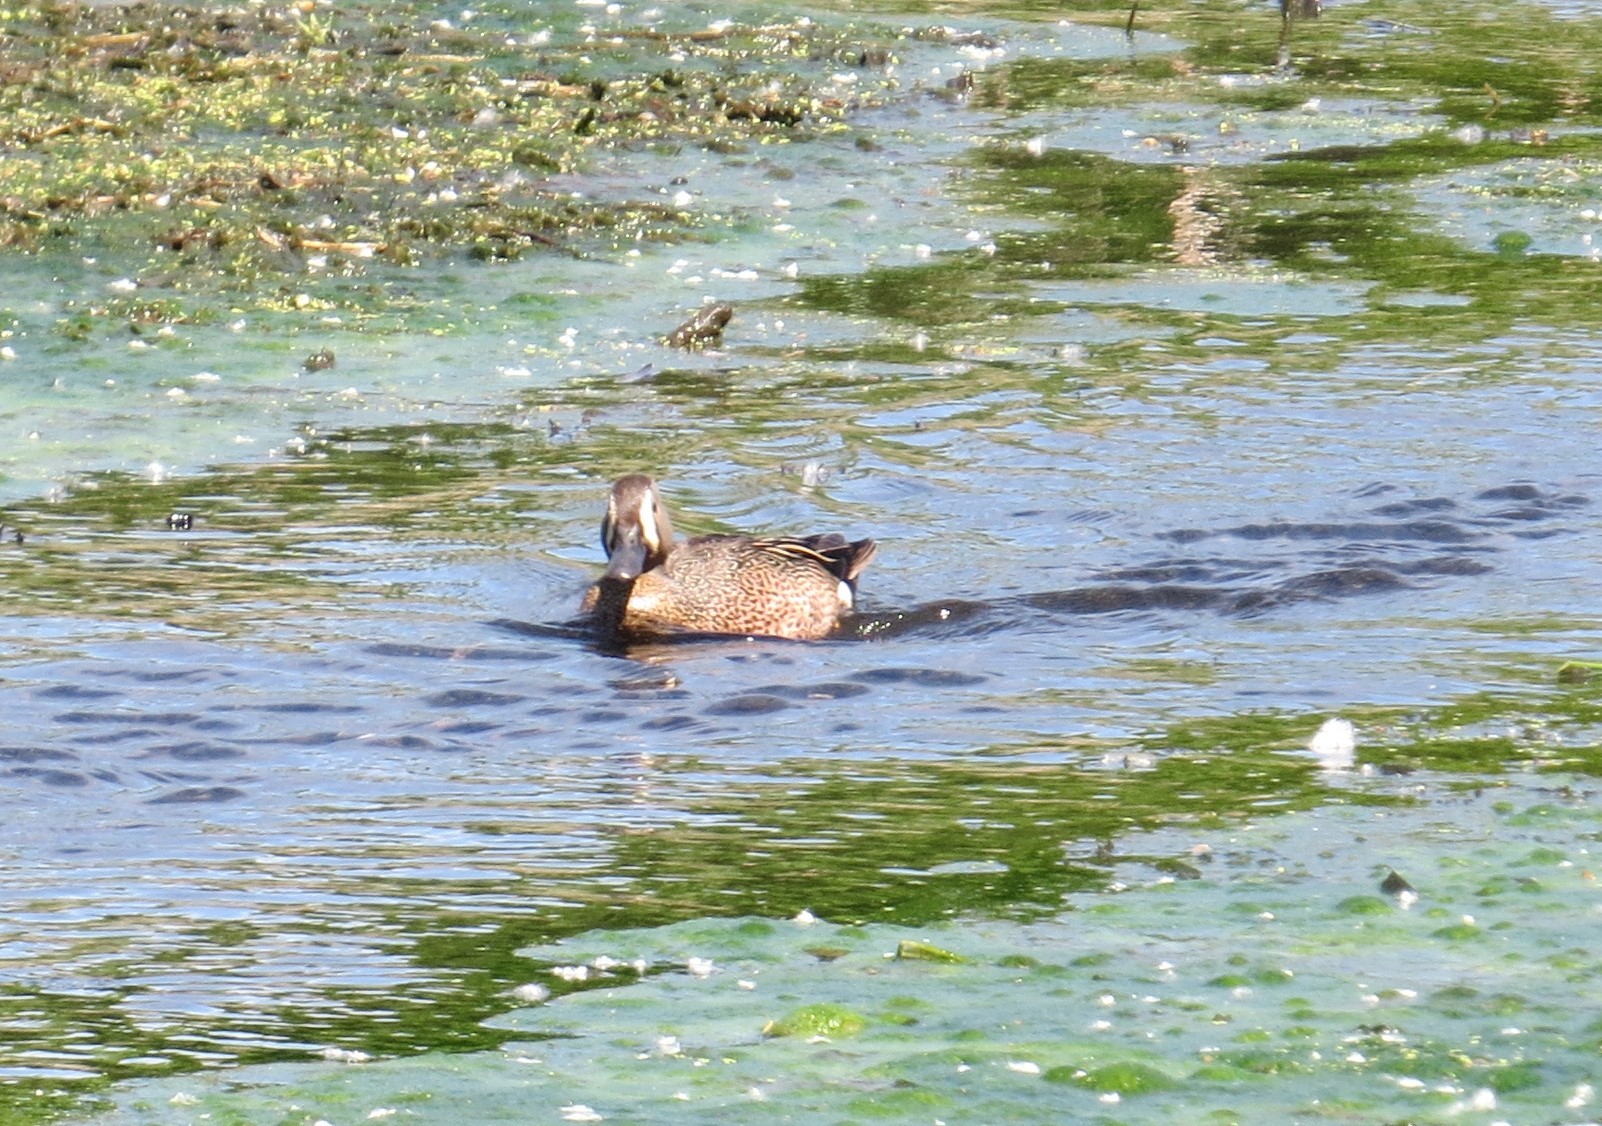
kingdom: Animalia
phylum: Chordata
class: Aves
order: Anseriformes
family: Anatidae
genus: Spatula
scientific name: Spatula discors
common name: Blue-winged teal
